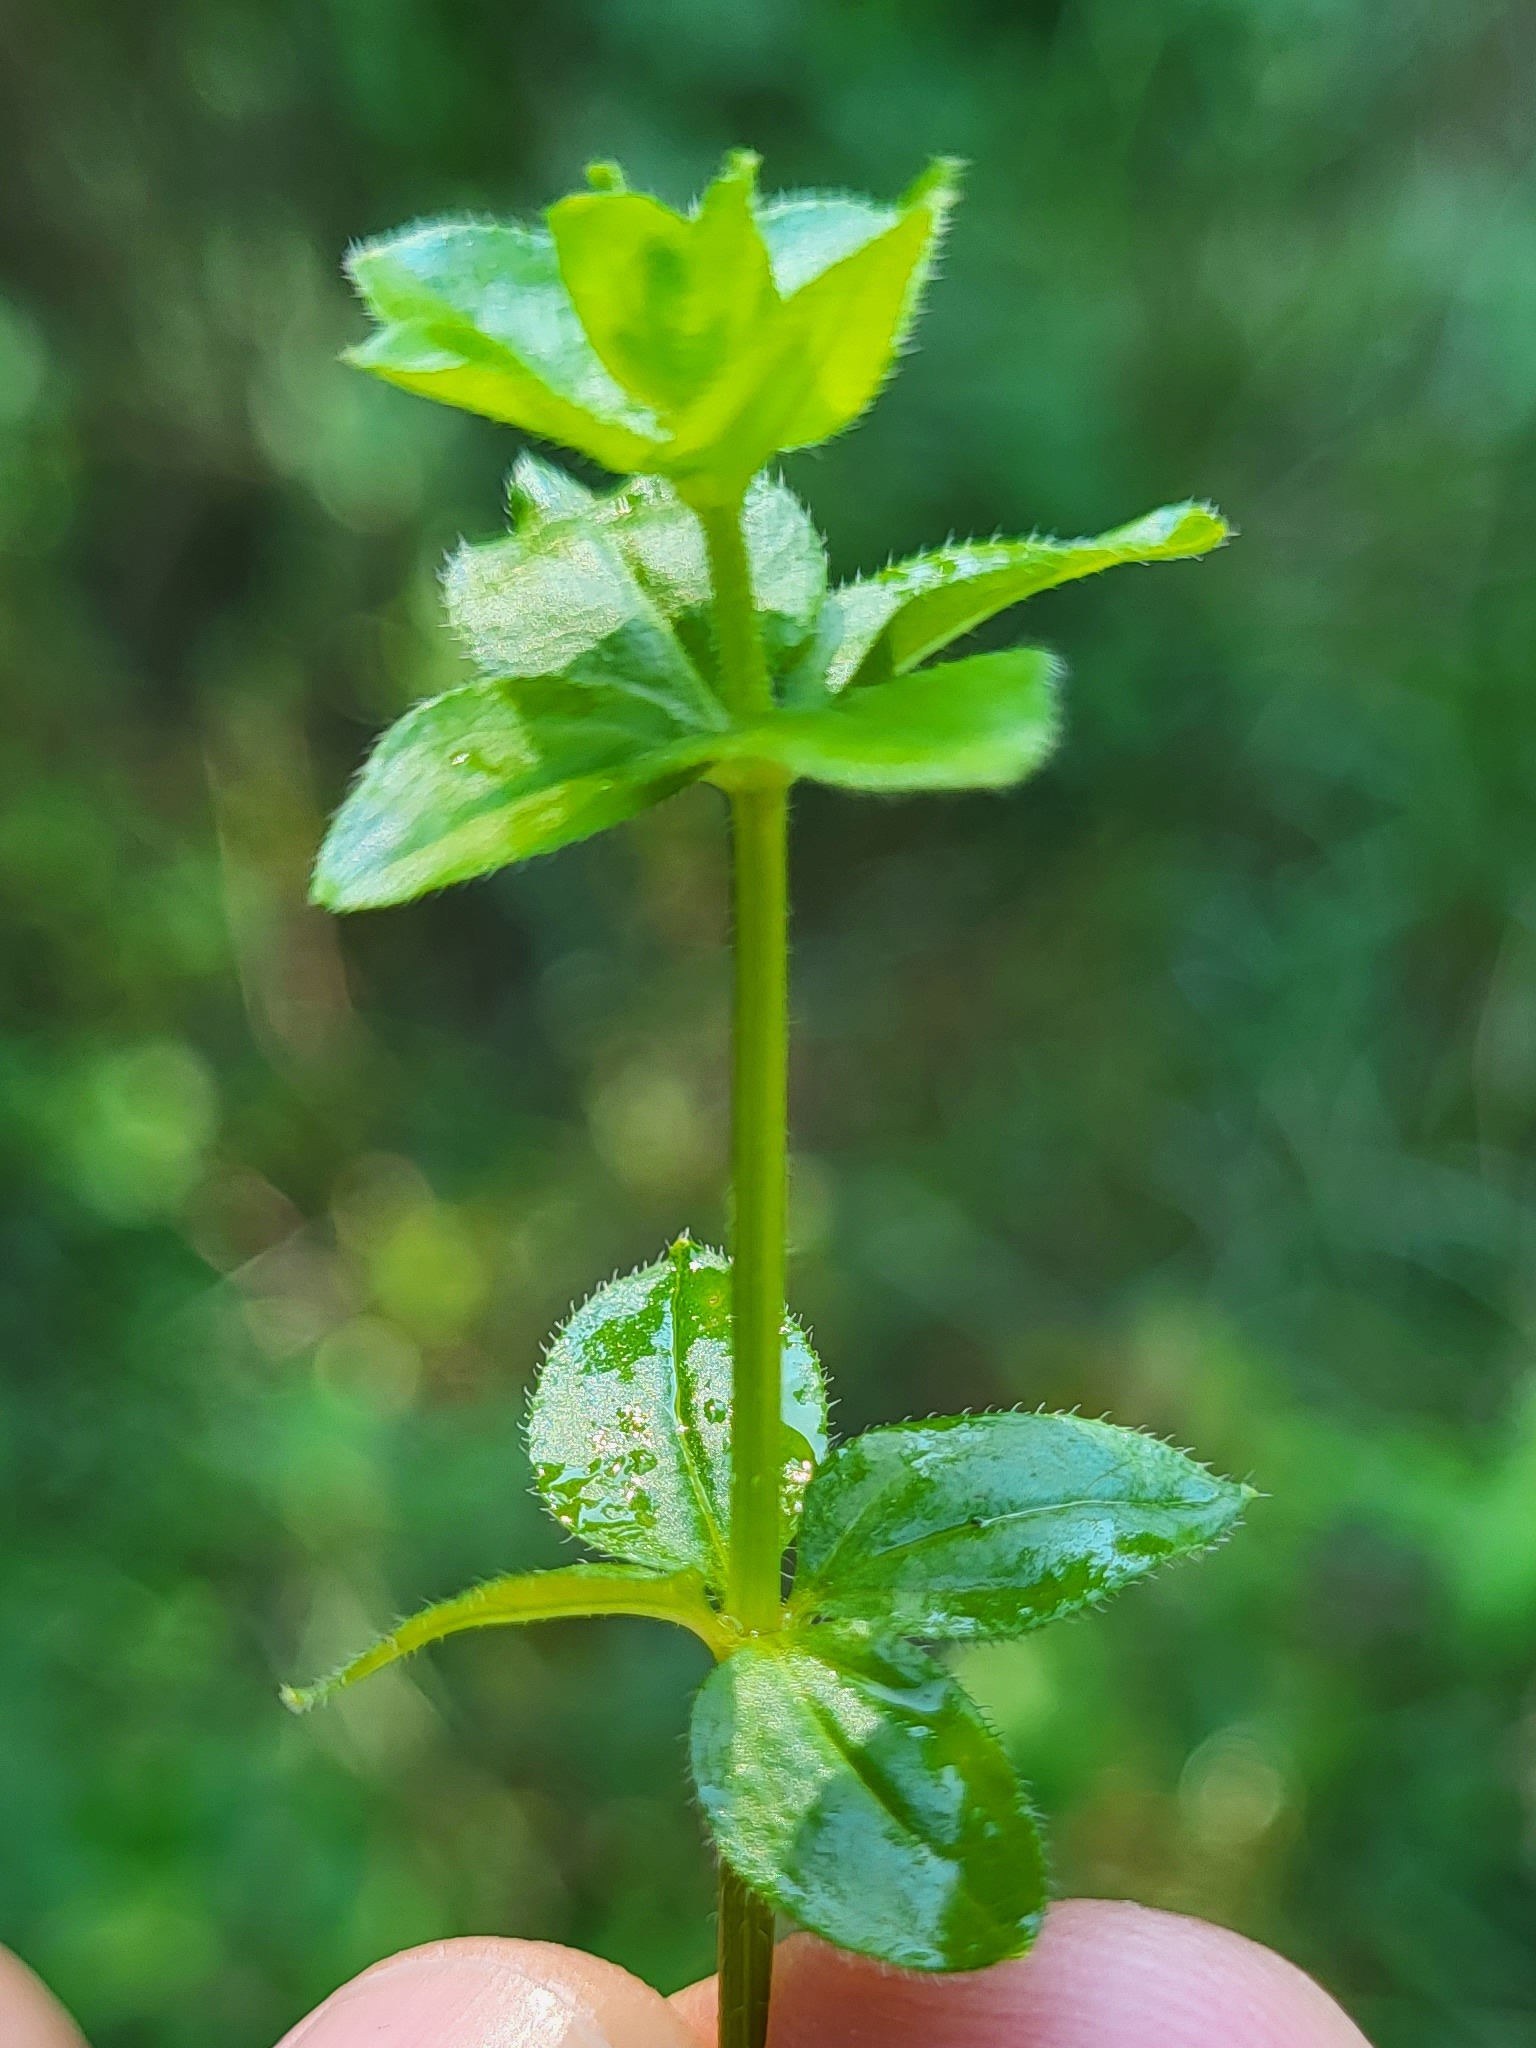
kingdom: Plantae
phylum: Tracheophyta
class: Magnoliopsida
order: Gentianales
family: Rubiaceae
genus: Galium
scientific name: Galium rotundifolium
